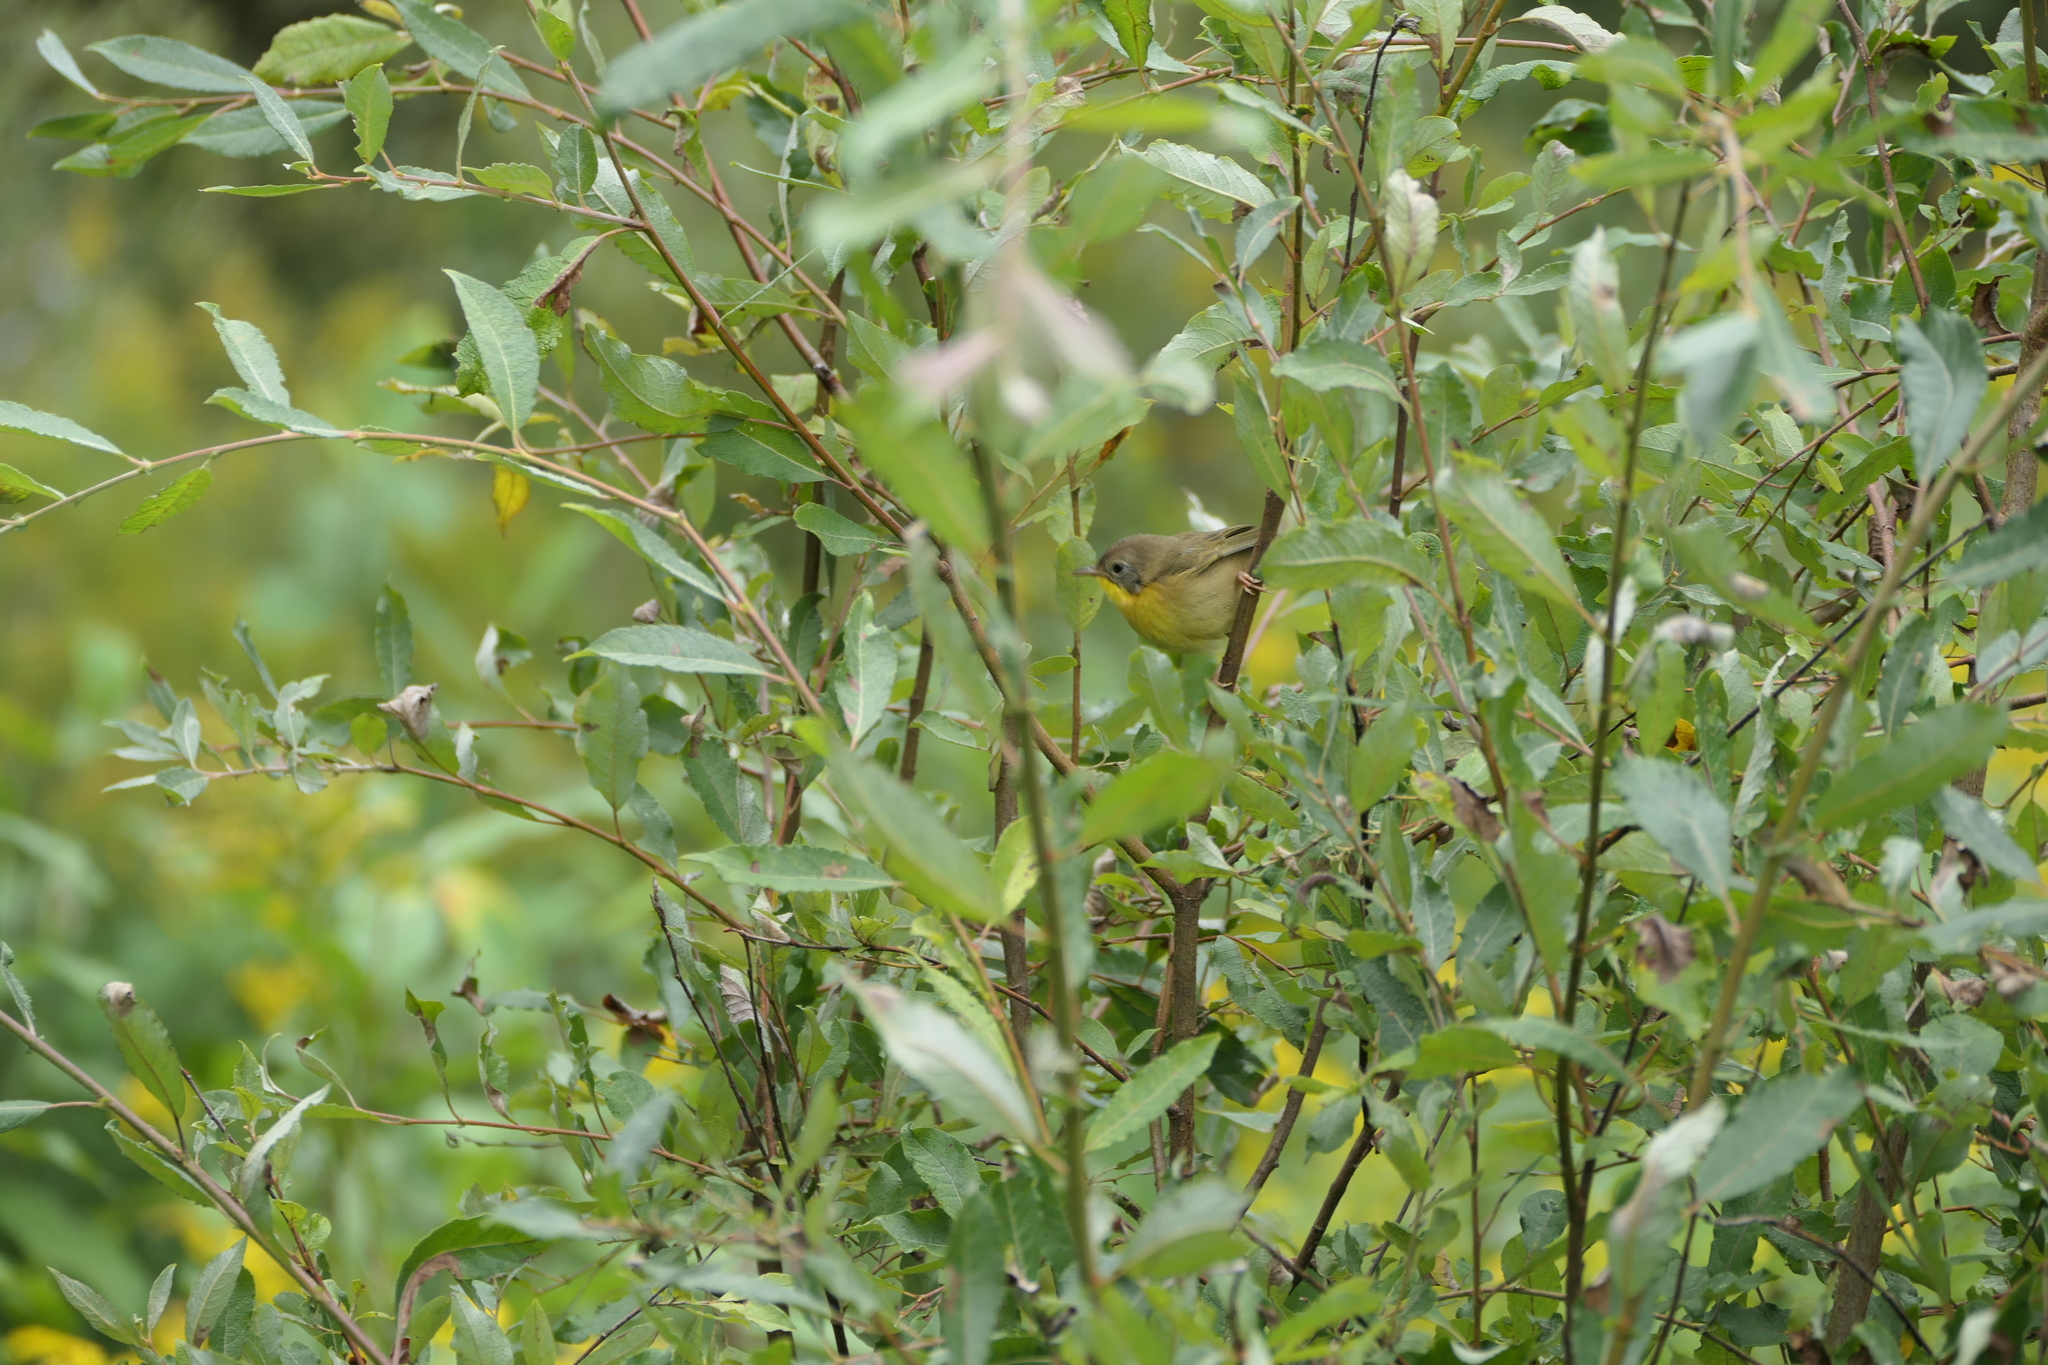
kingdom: Animalia
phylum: Chordata
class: Aves
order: Passeriformes
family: Parulidae
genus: Geothlypis
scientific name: Geothlypis trichas
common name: Common yellowthroat
